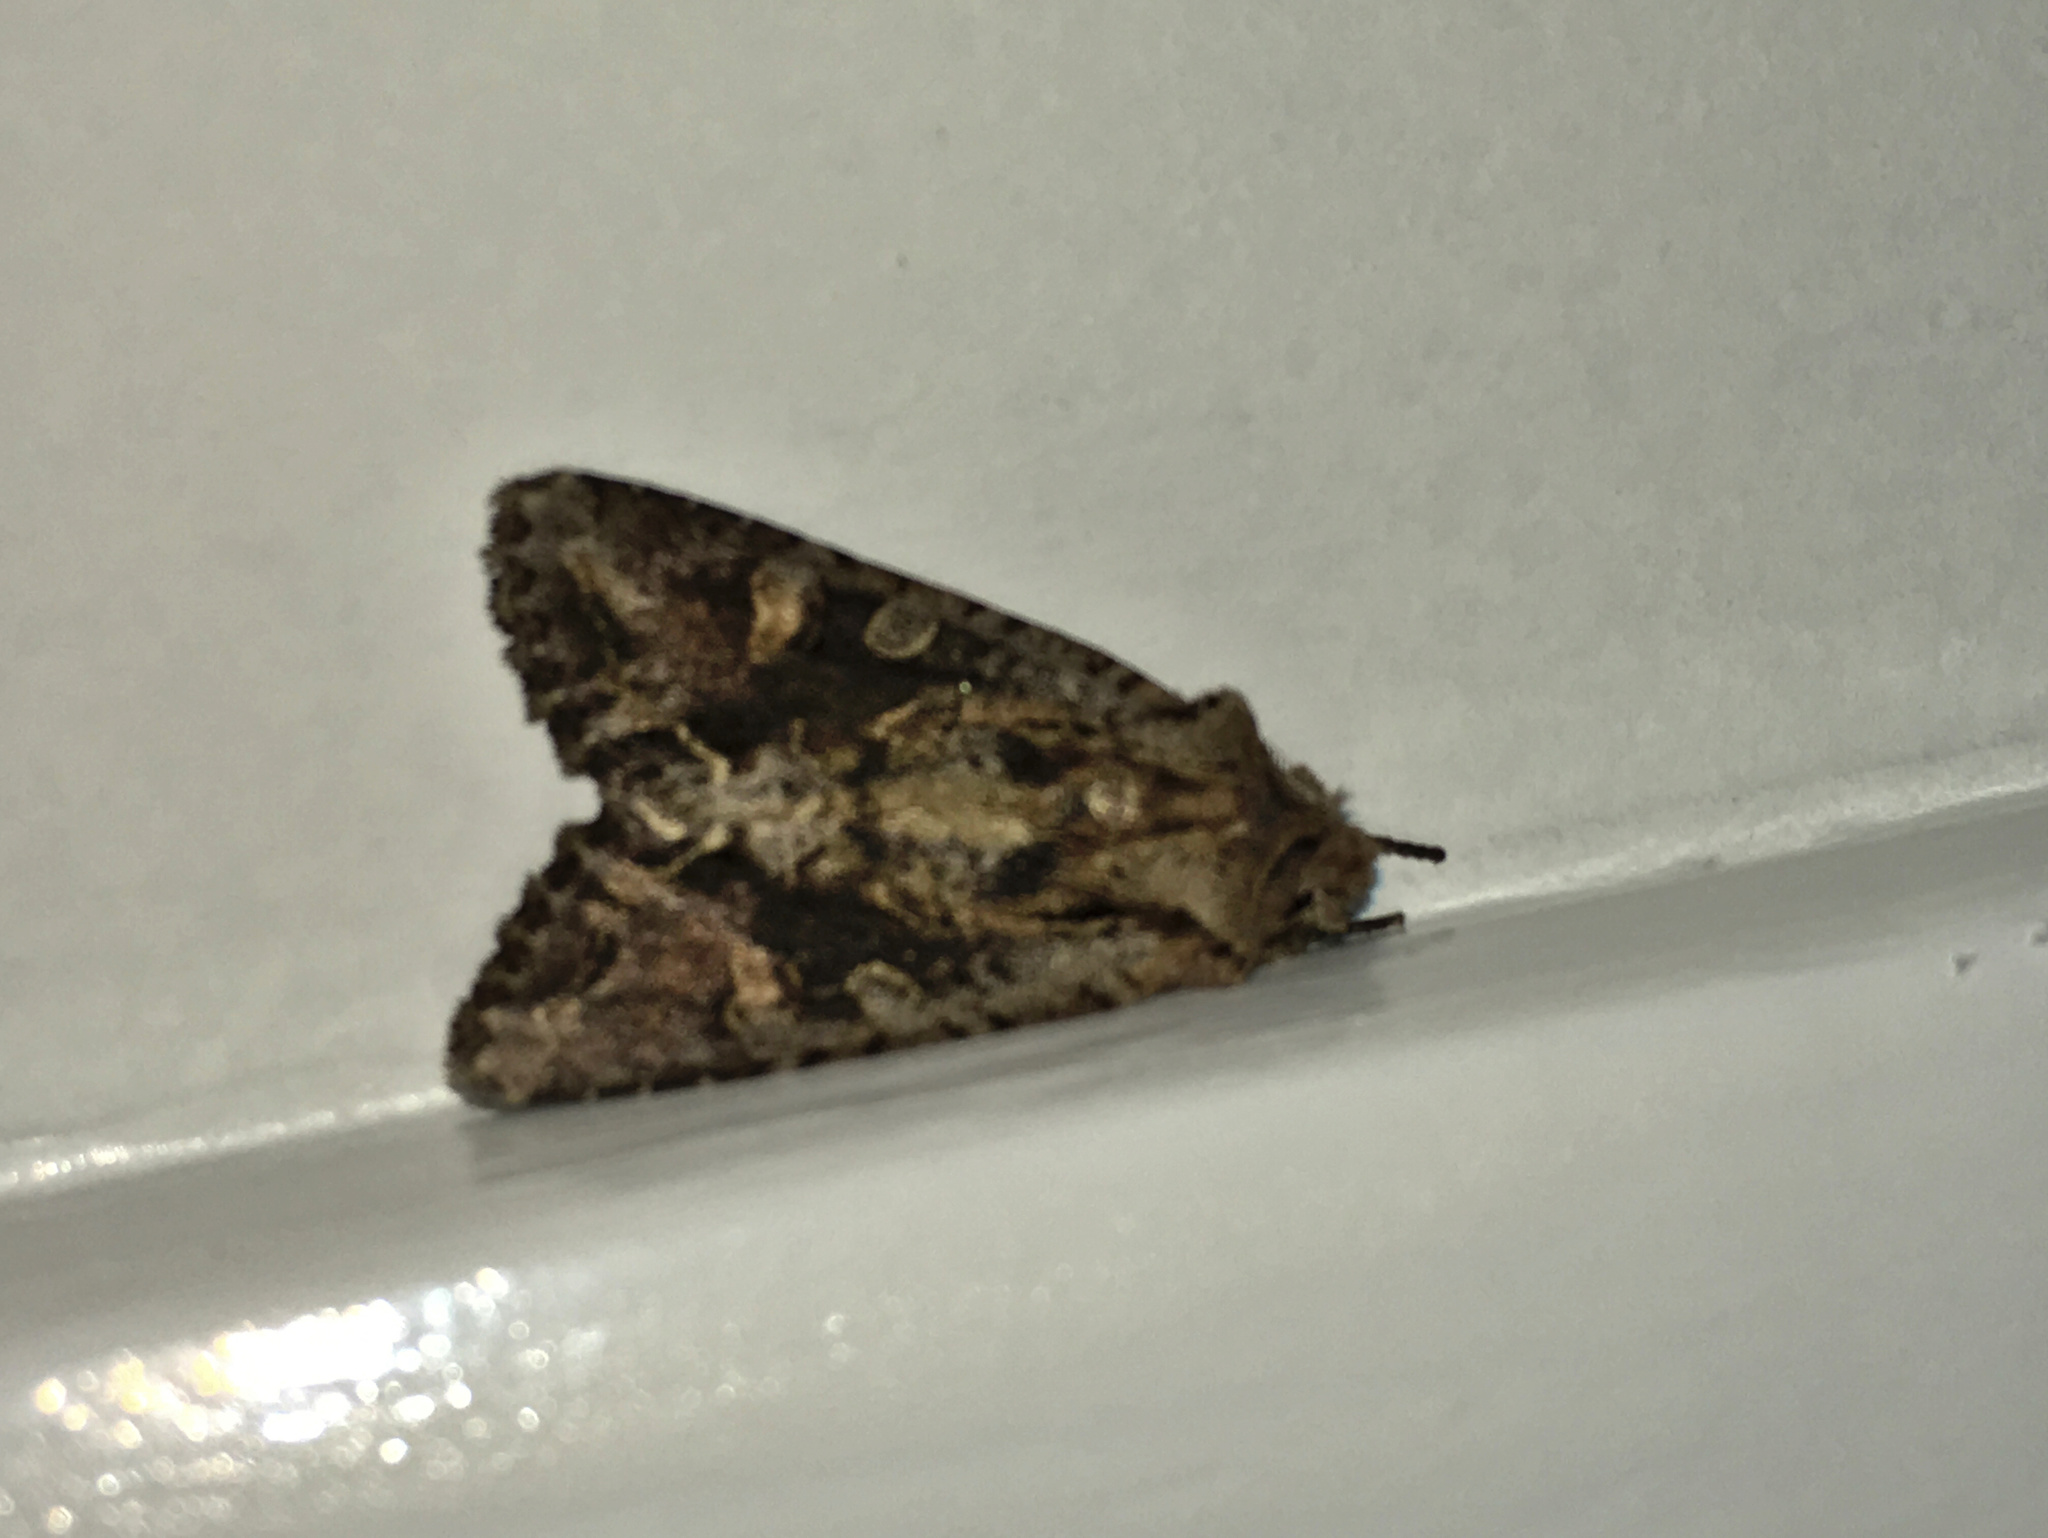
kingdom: Animalia
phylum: Arthropoda
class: Insecta
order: Lepidoptera
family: Noctuidae
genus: Ichneutica
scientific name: Ichneutica insignis
